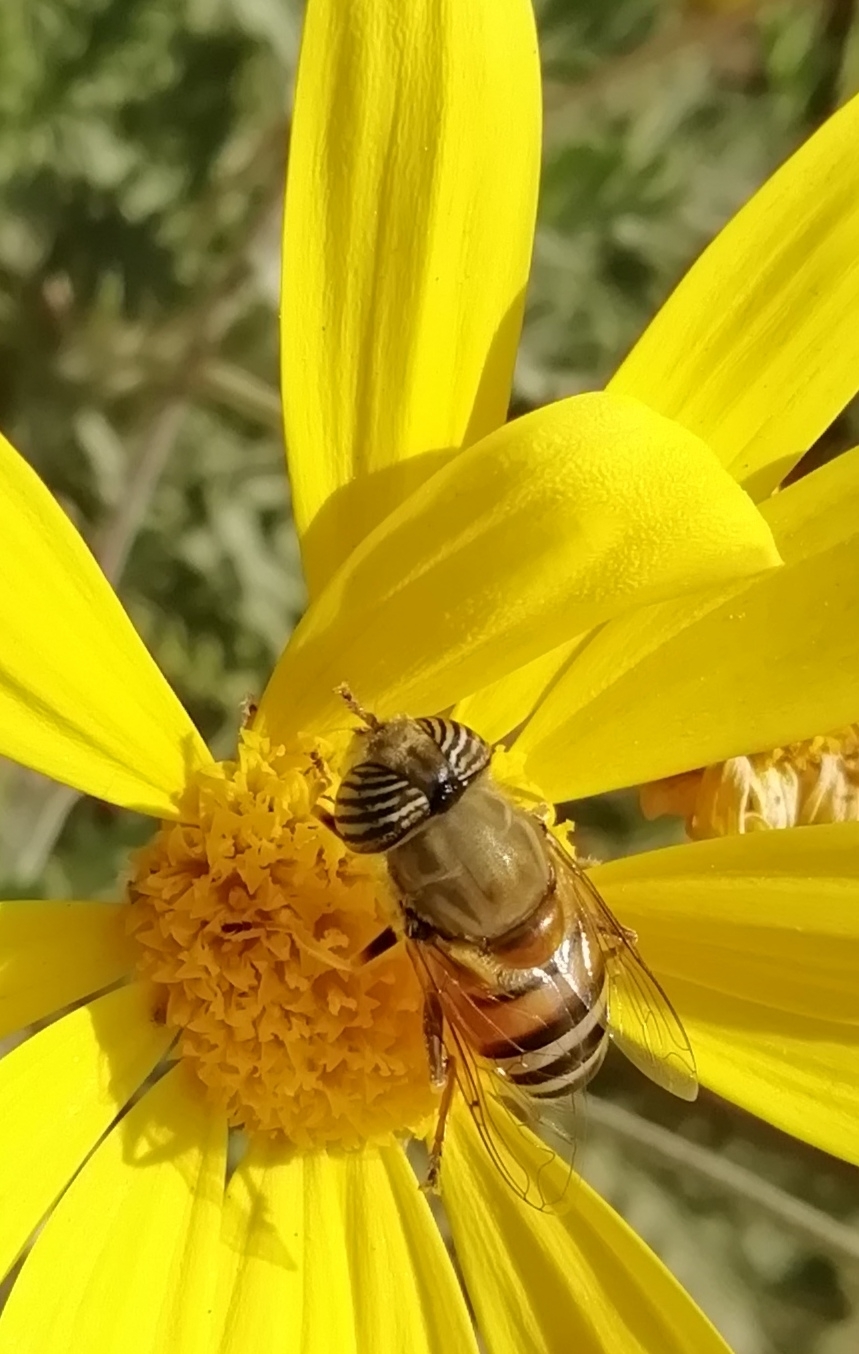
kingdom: Animalia
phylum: Arthropoda
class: Insecta
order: Diptera
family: Syrphidae
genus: Eristalinus
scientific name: Eristalinus taeniops
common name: Syrphid fly
